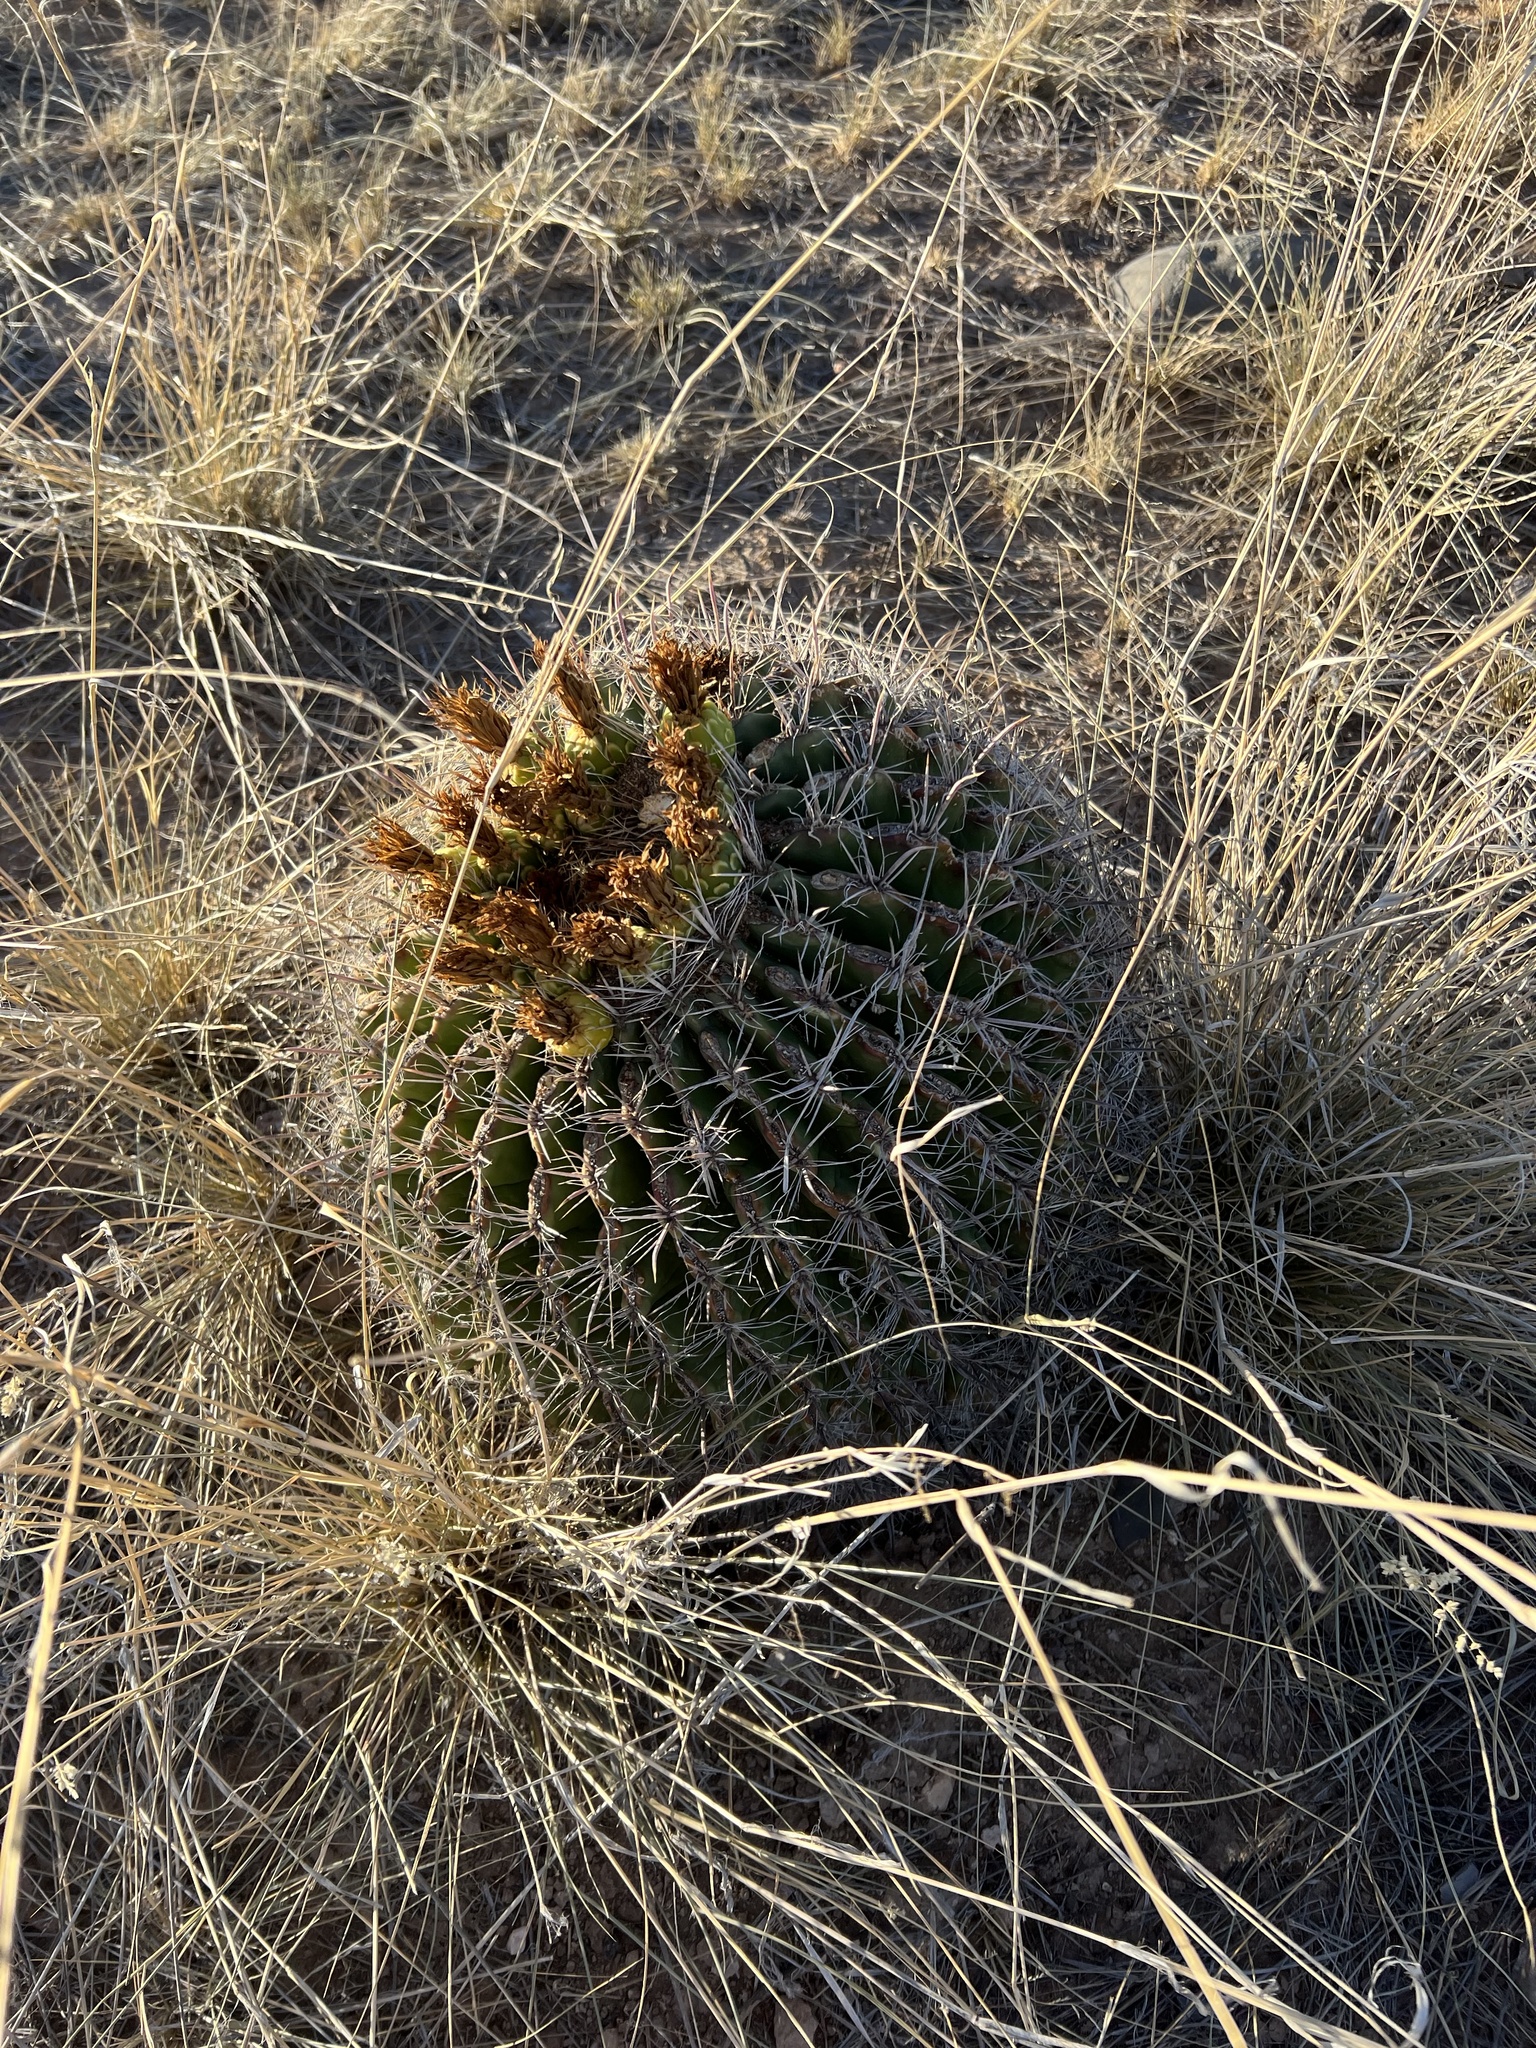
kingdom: Plantae
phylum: Tracheophyta
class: Magnoliopsida
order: Caryophyllales
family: Cactaceae
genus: Ferocactus
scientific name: Ferocactus wislizeni
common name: Candy barrel cactus
